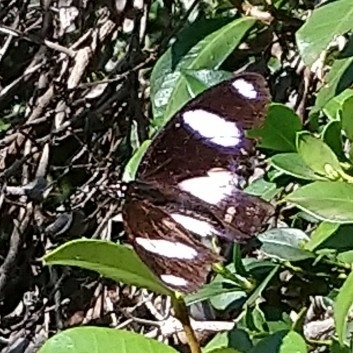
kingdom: Animalia
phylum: Arthropoda
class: Insecta
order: Lepidoptera
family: Nymphalidae
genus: Hypolimnas
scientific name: Hypolimnas misippus
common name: False plain tiger
